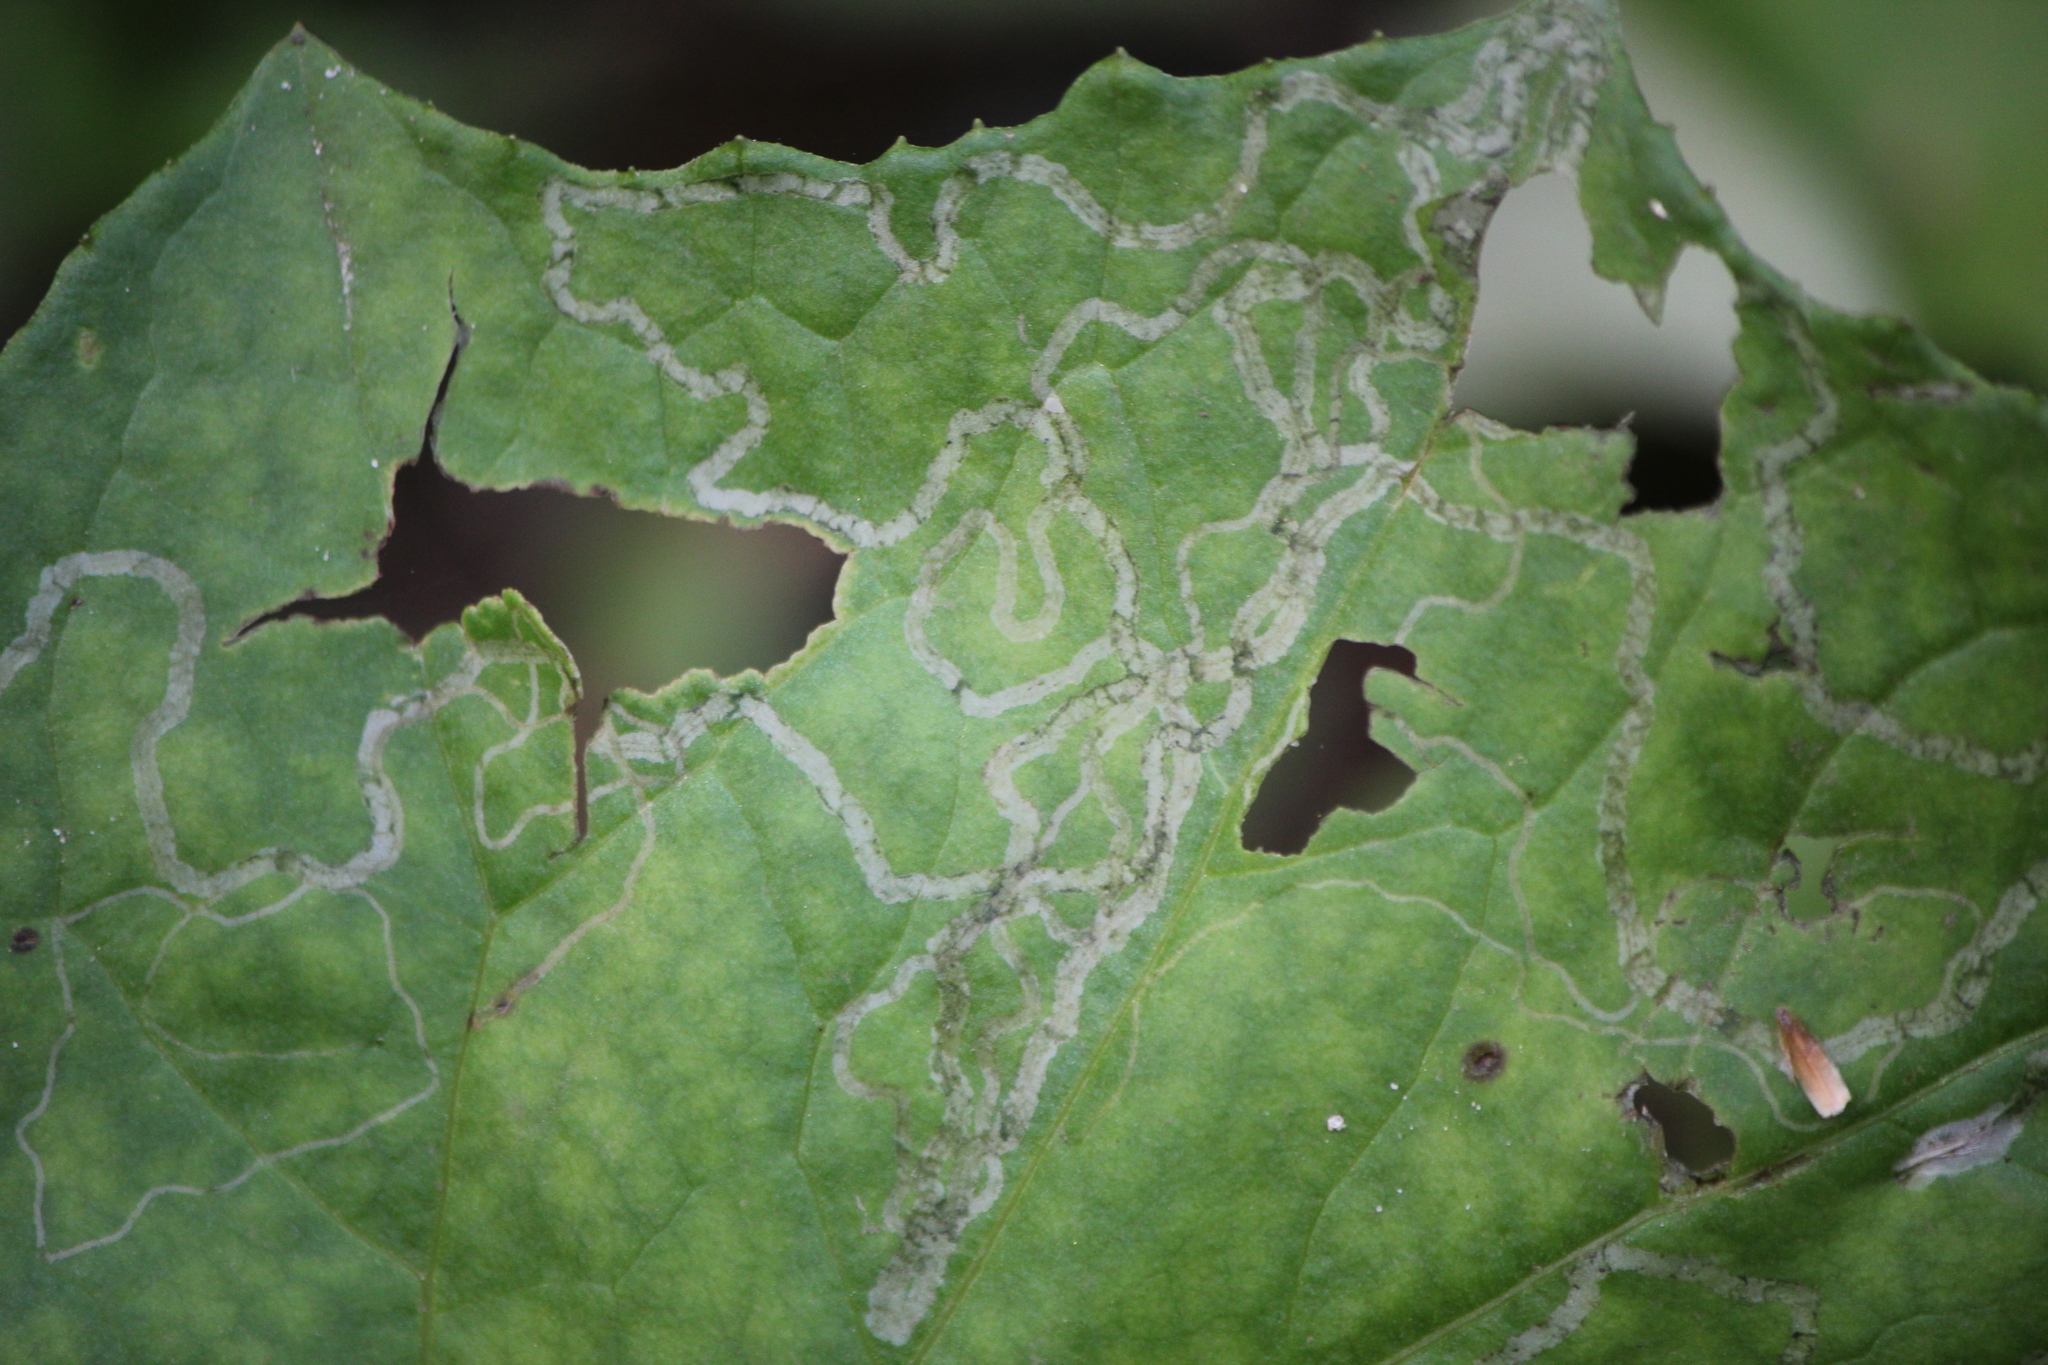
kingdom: Animalia
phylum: Arthropoda
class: Insecta
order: Lepidoptera
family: Gracillariidae
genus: Phyllocnistis
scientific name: Phyllocnistis insignis
